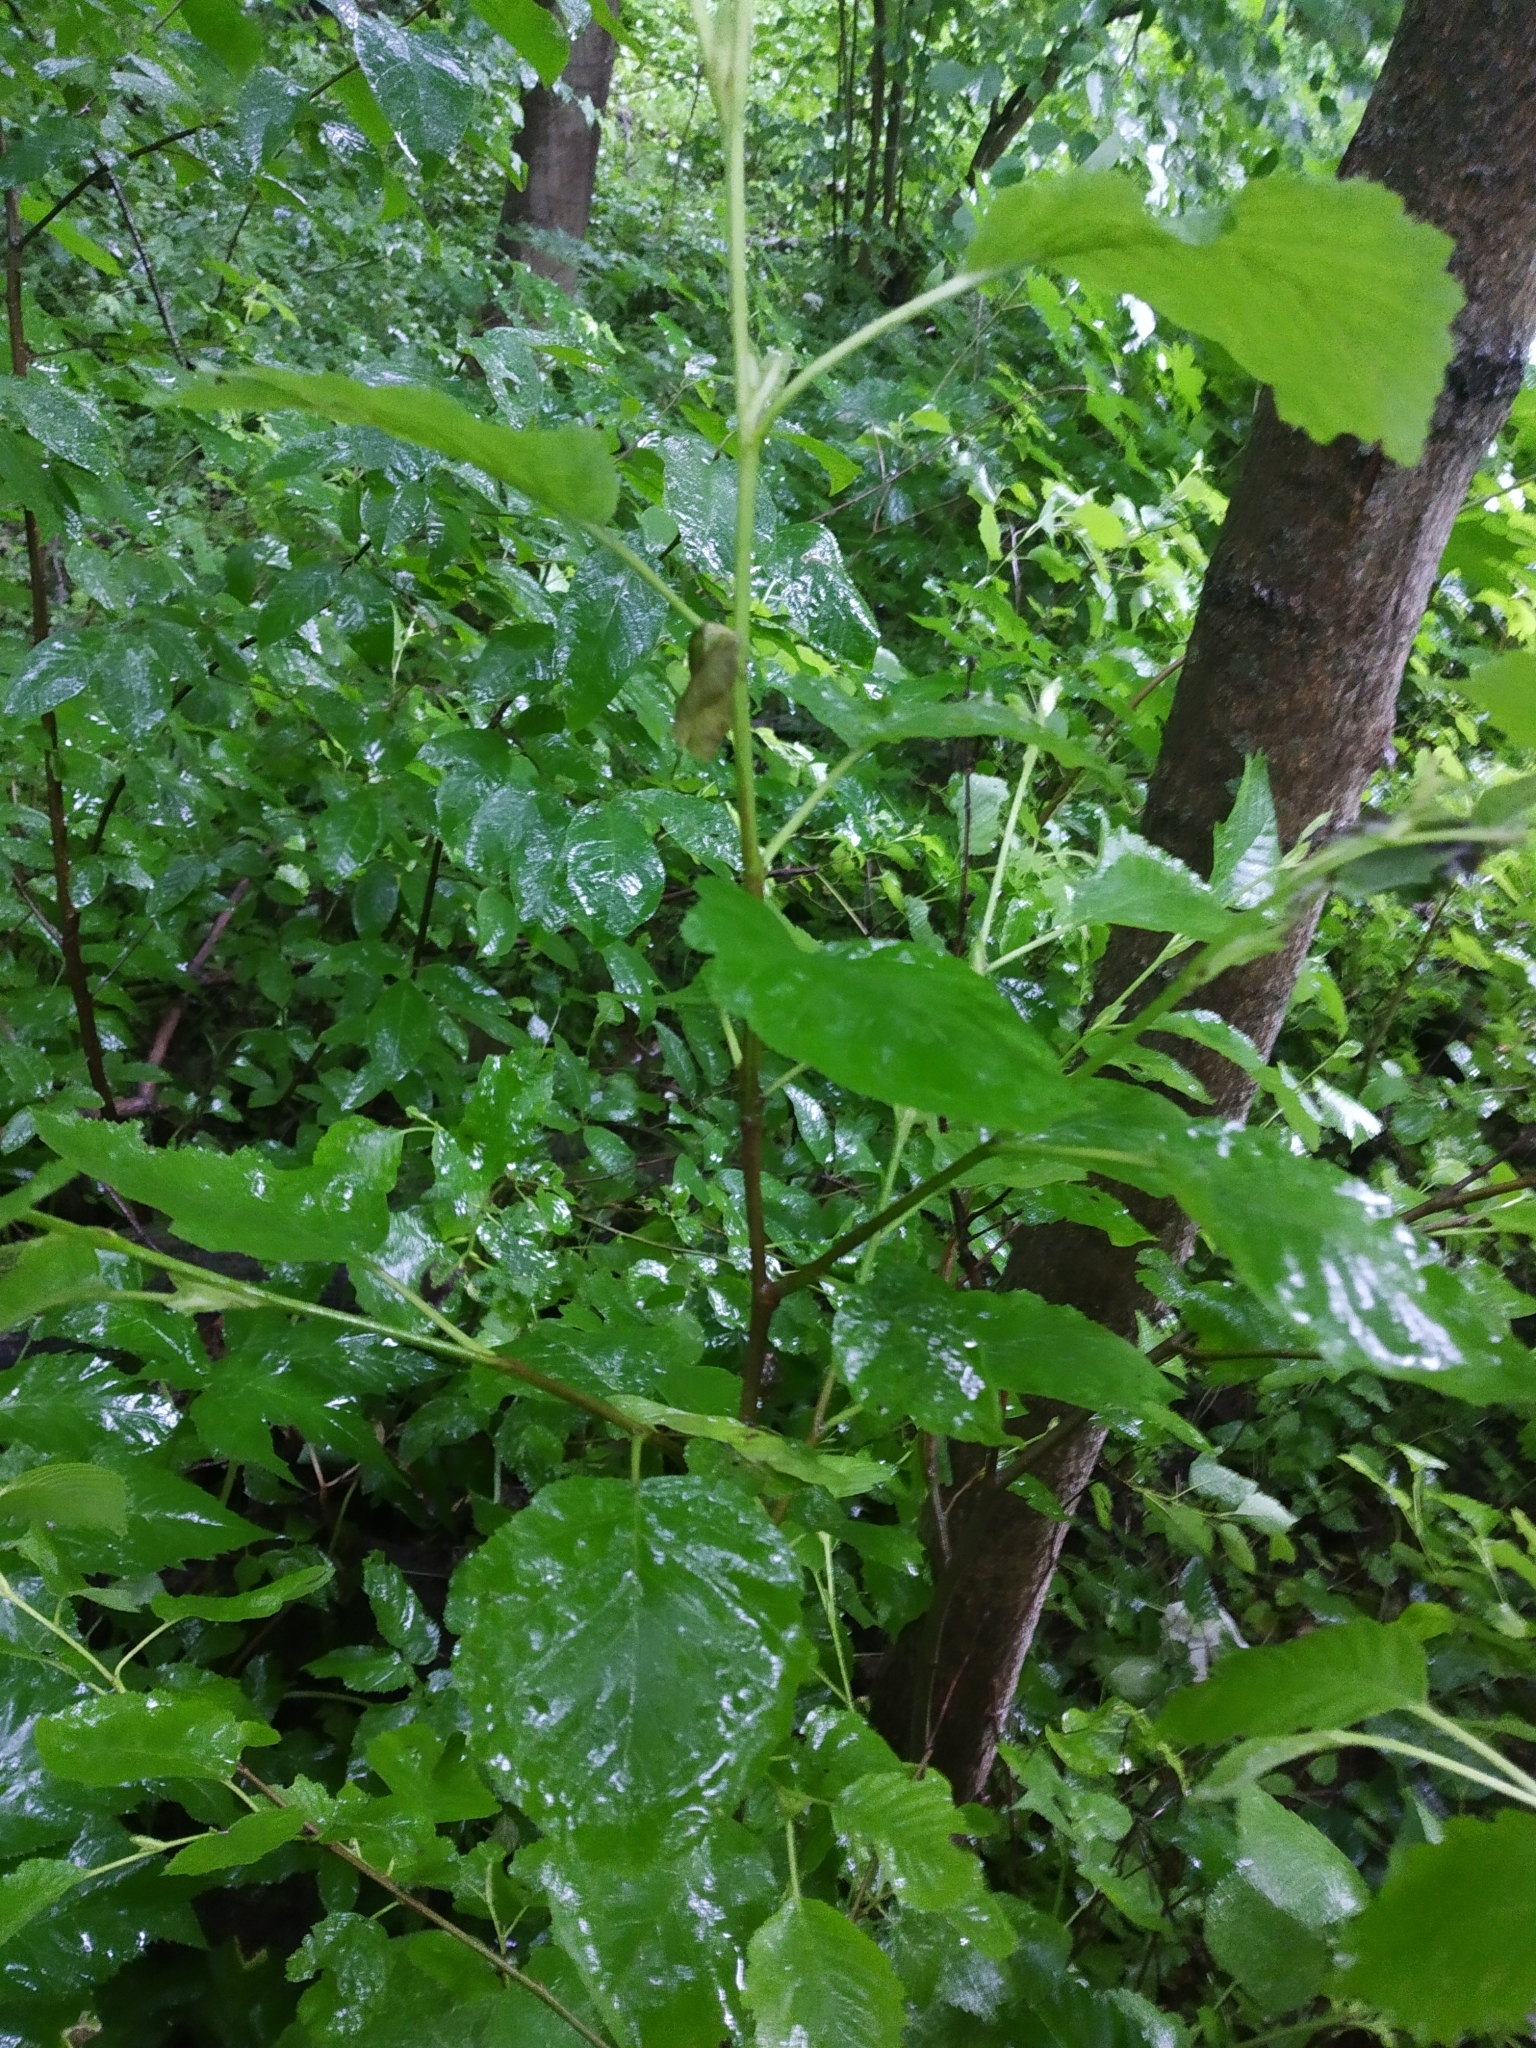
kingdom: Plantae
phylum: Tracheophyta
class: Magnoliopsida
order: Fagales
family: Betulaceae
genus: Alnus
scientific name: Alnus incana
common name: Grey alder
